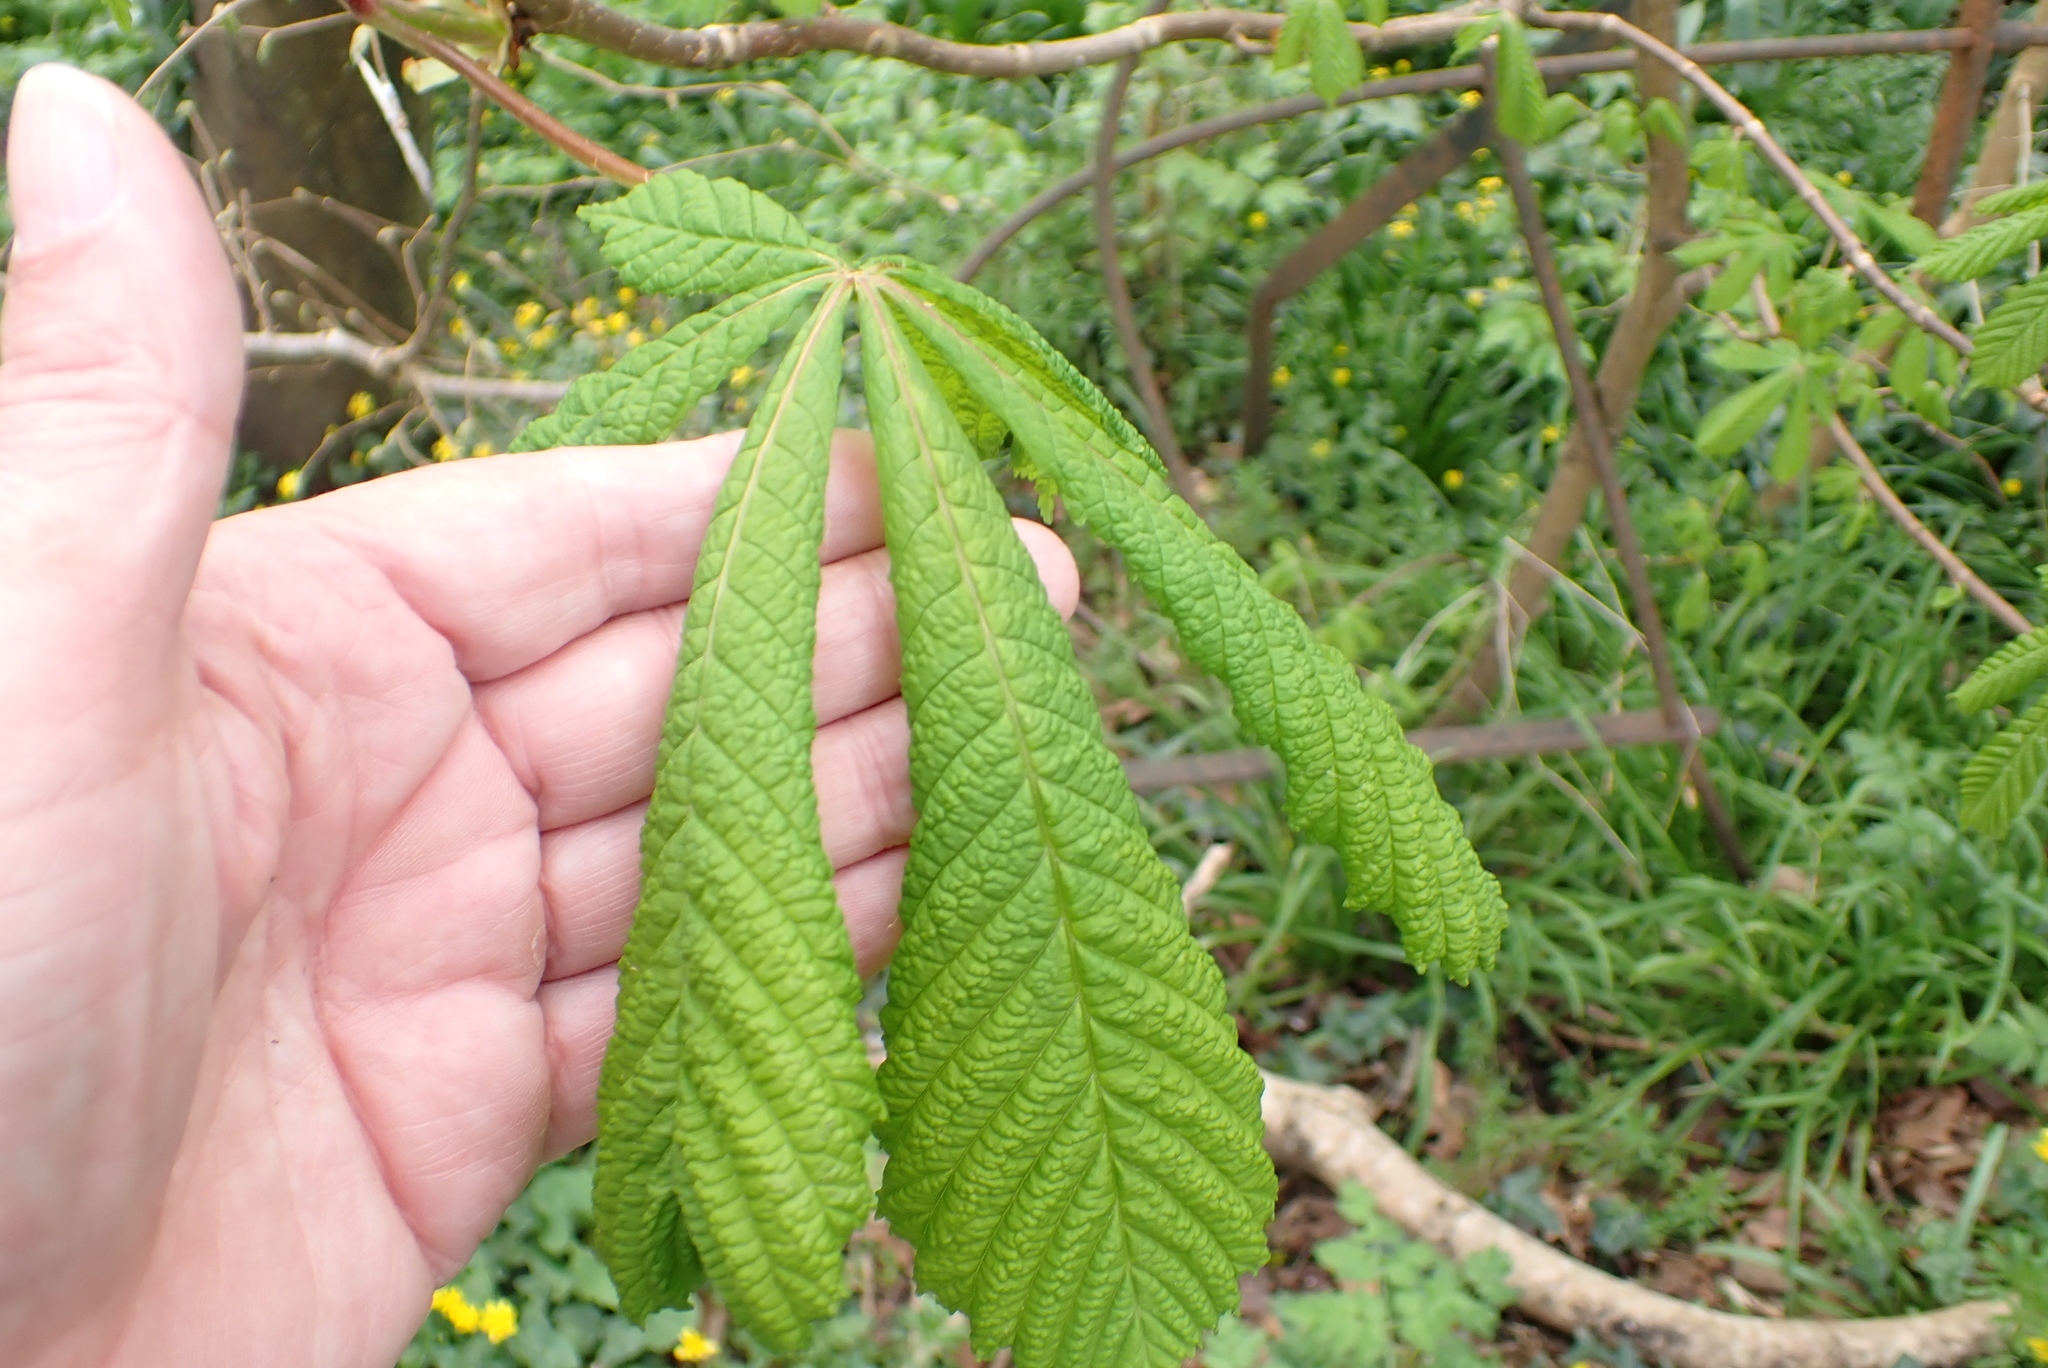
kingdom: Plantae
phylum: Tracheophyta
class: Magnoliopsida
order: Sapindales
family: Sapindaceae
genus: Aesculus
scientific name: Aesculus hippocastanum
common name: Horse-chestnut
